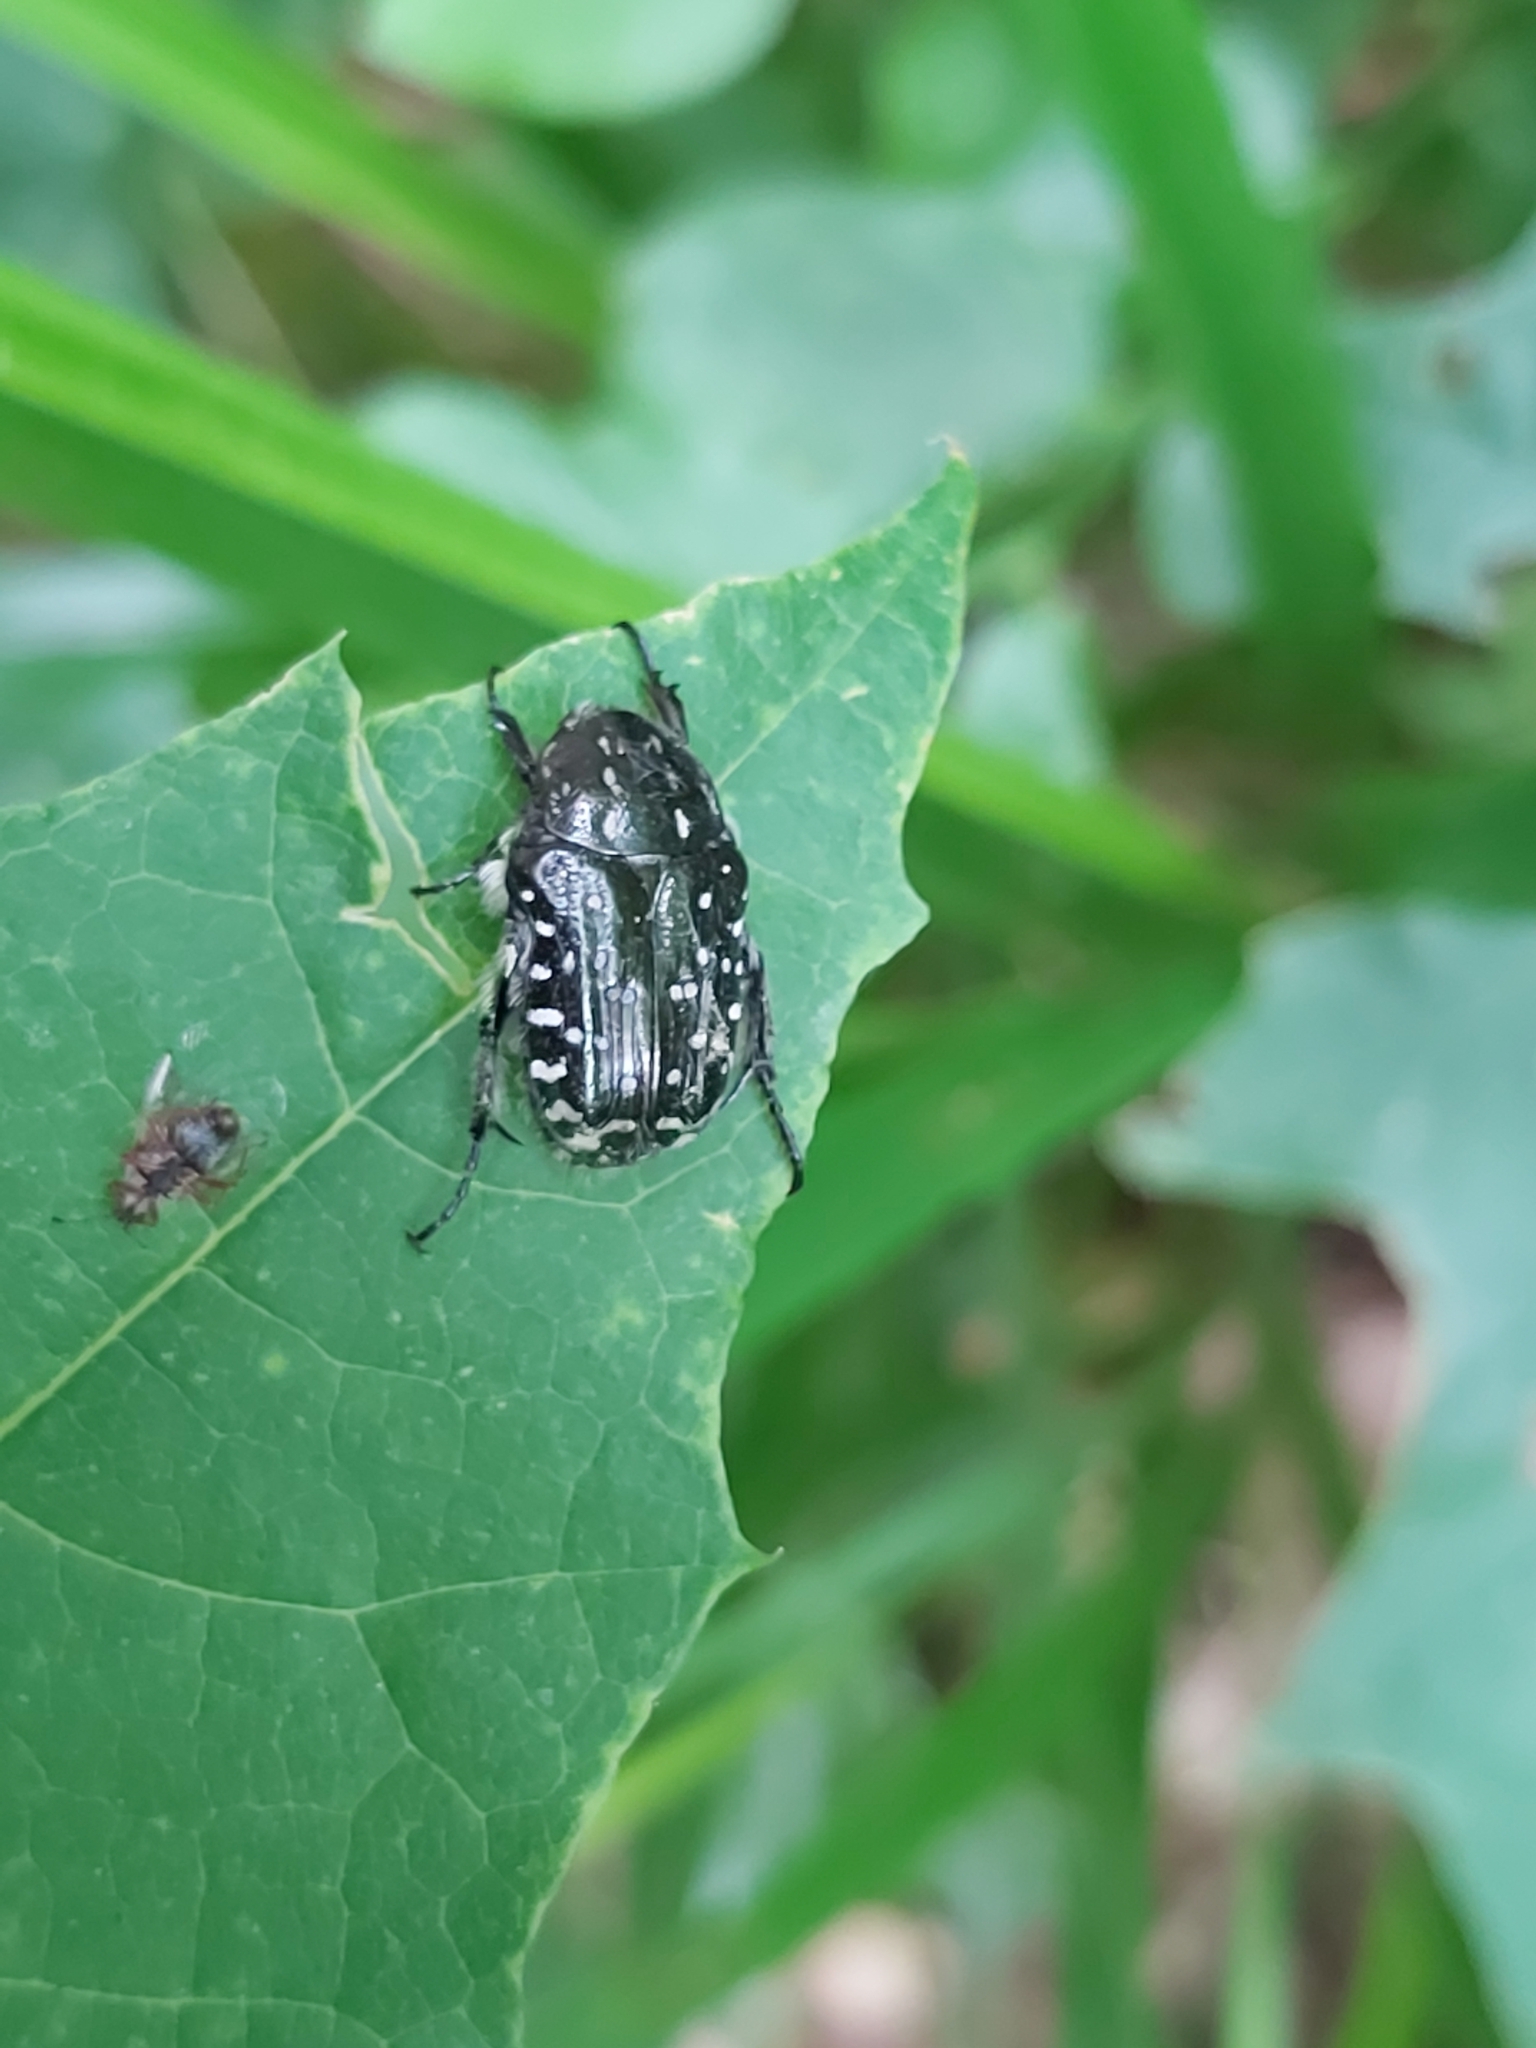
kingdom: Animalia
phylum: Arthropoda
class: Insecta
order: Coleoptera
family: Scarabaeidae
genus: Oxythyrea
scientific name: Oxythyrea funesta
